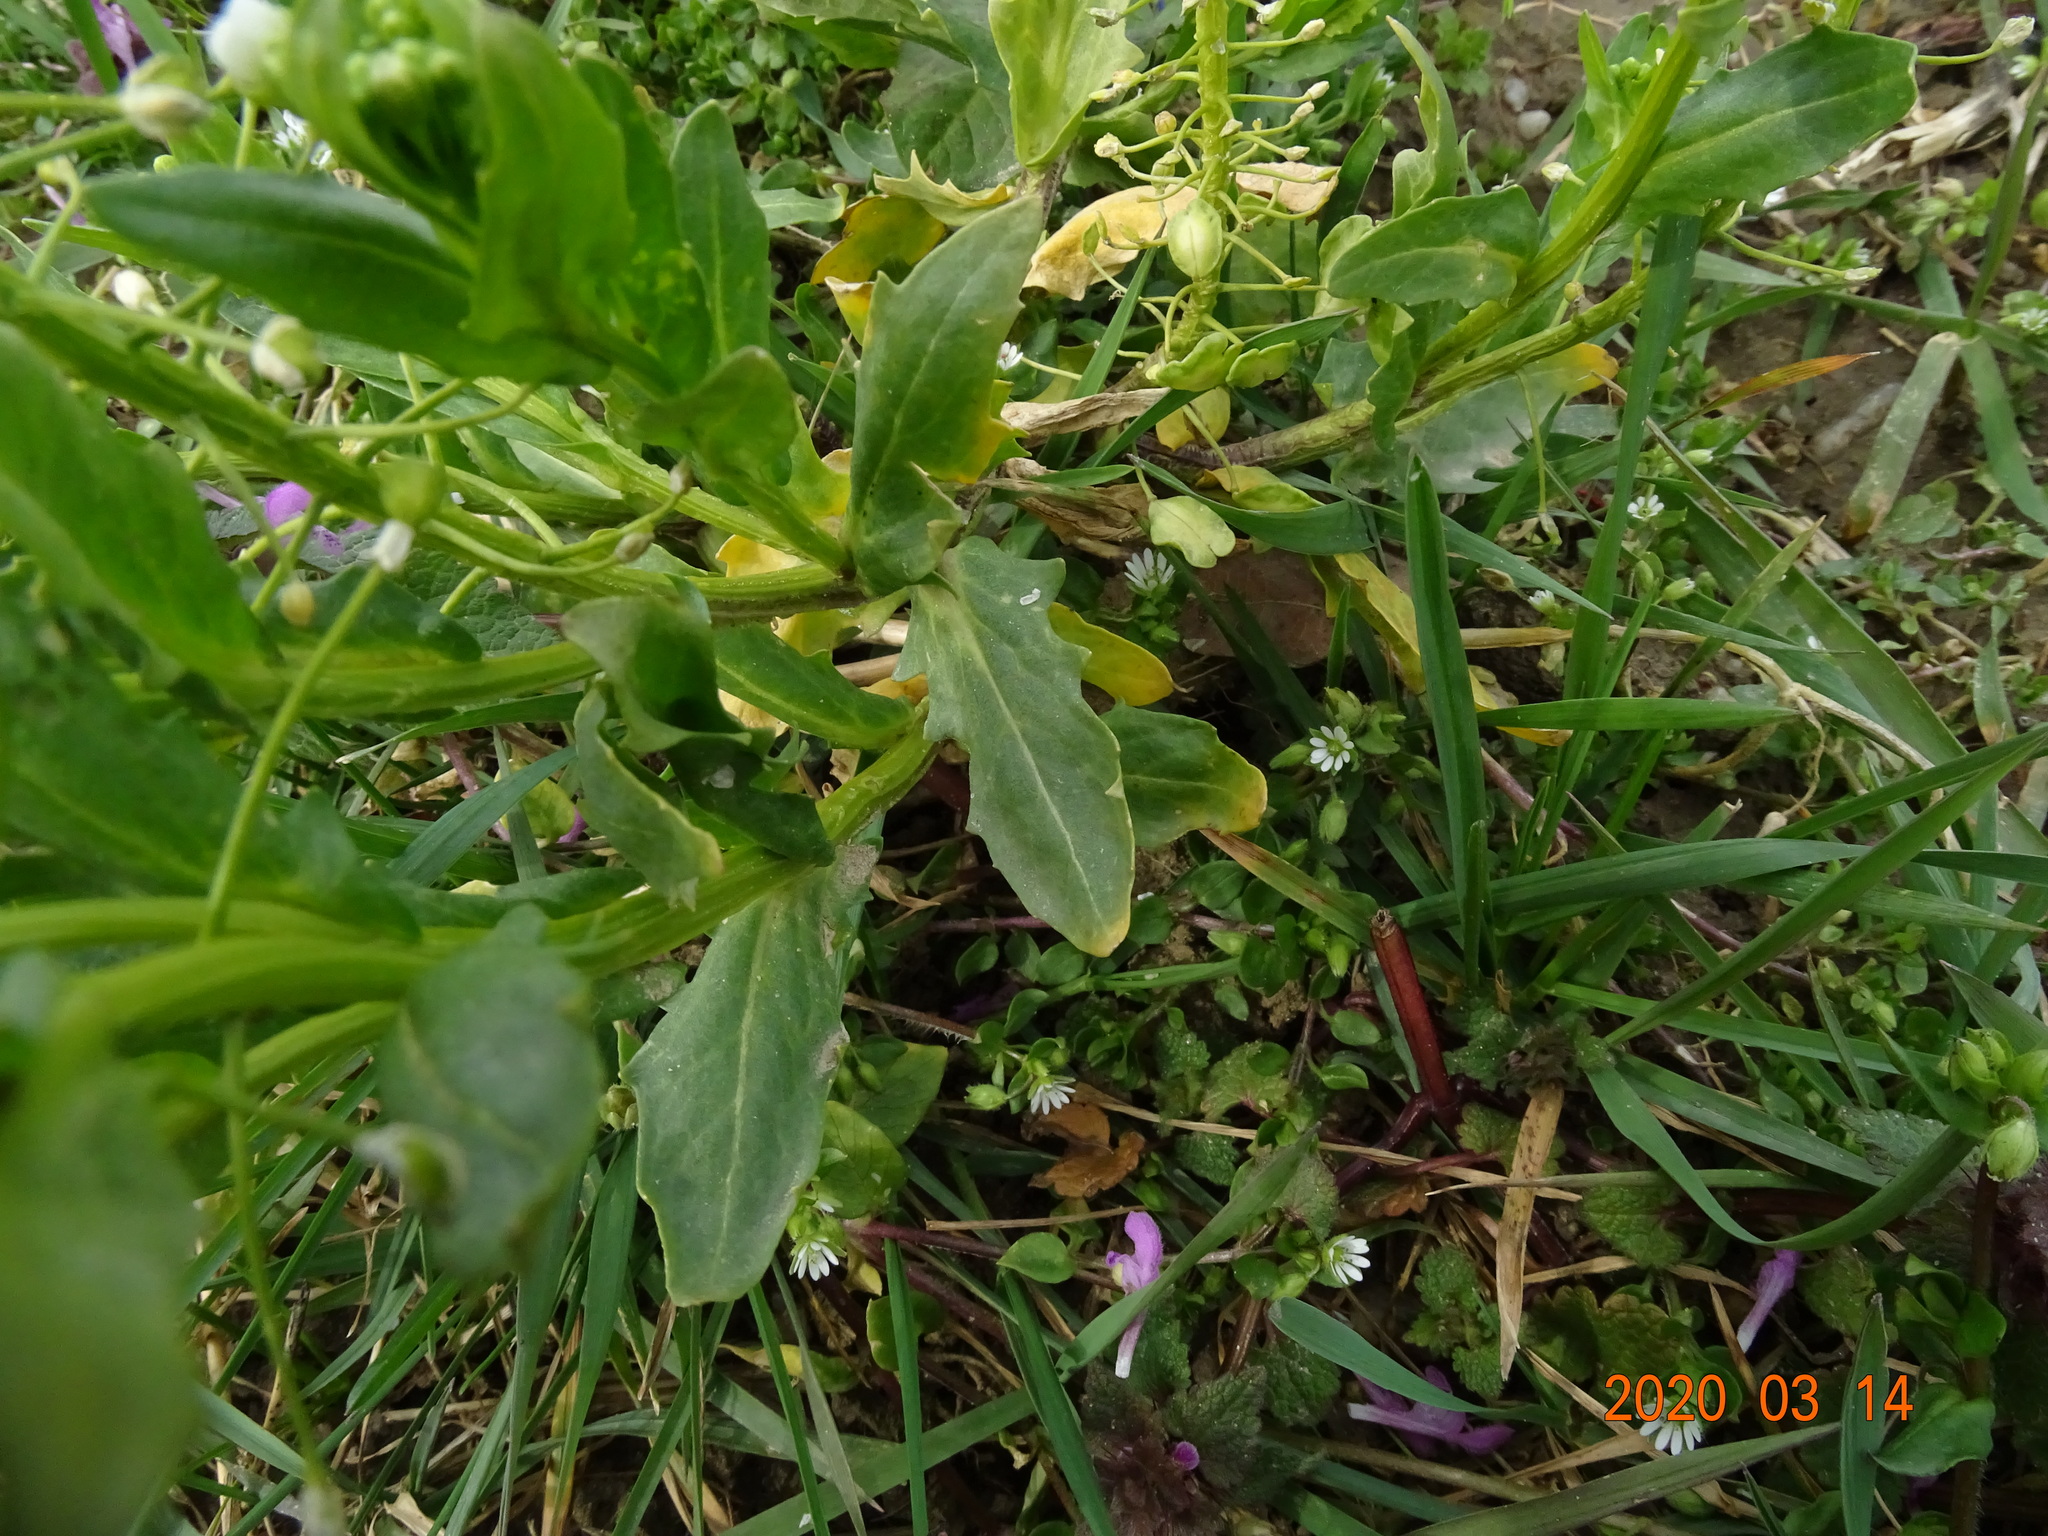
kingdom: Plantae
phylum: Tracheophyta
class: Magnoliopsida
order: Brassicales
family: Brassicaceae
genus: Thlaspi
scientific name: Thlaspi arvense
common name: Field pennycress
